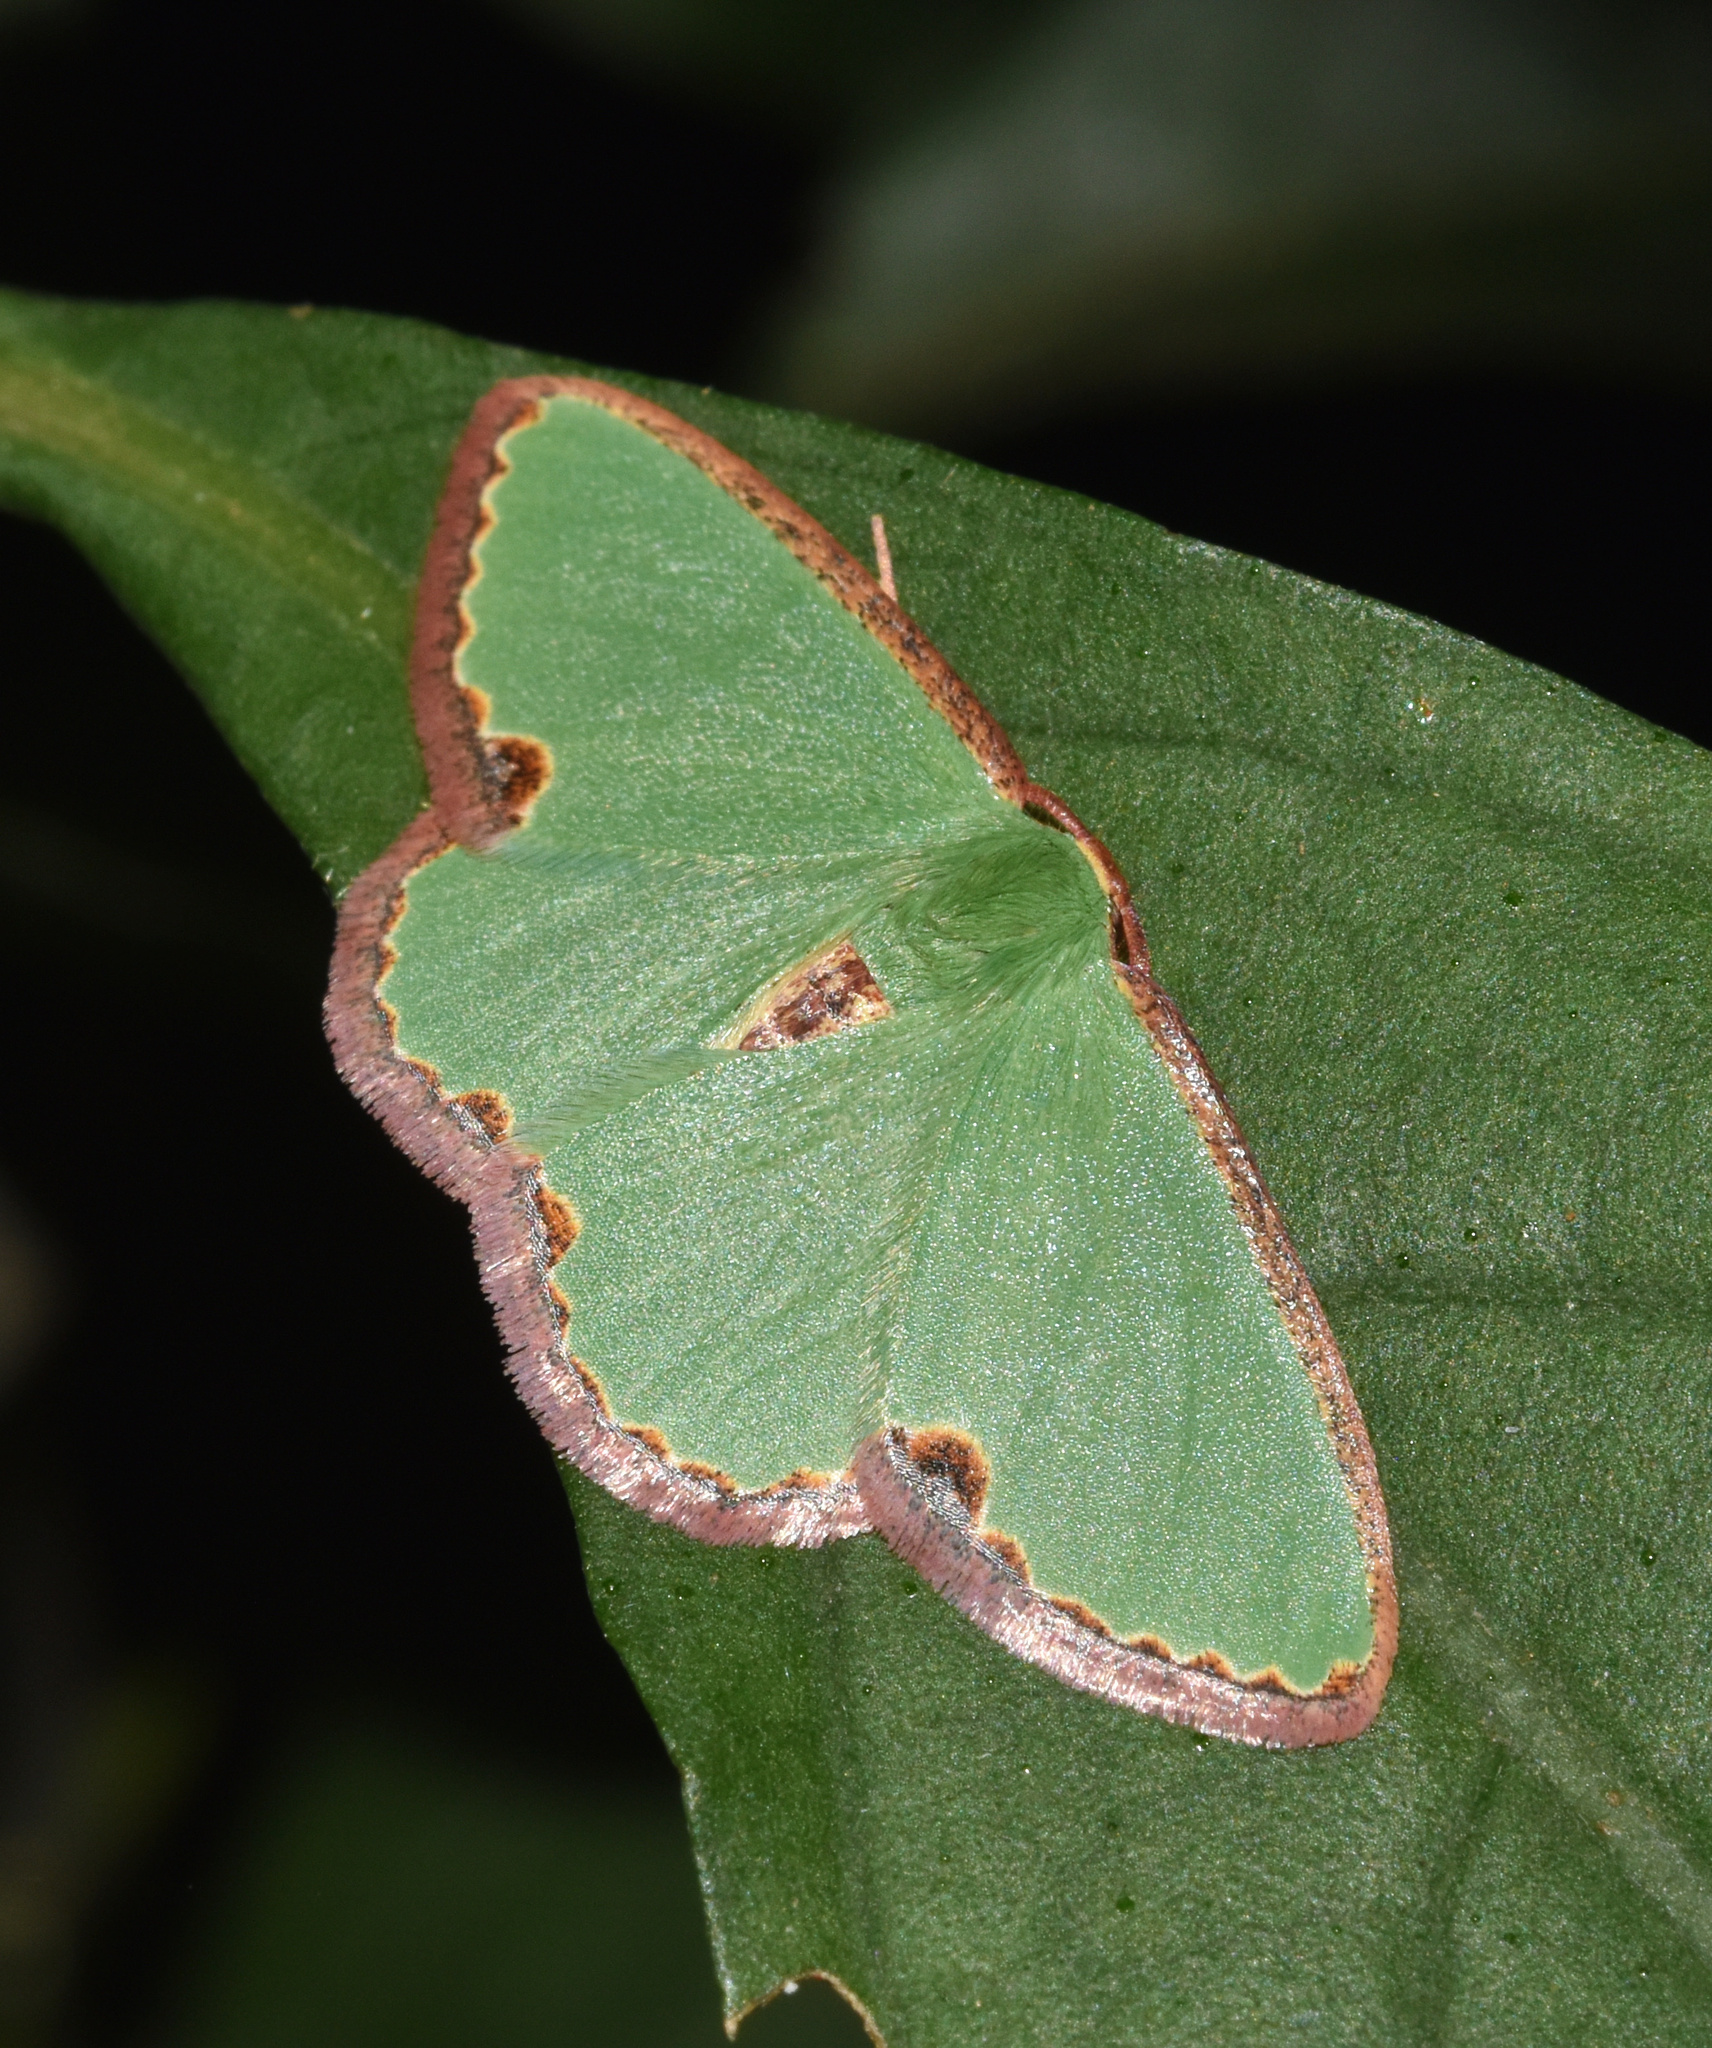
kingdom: Animalia
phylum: Arthropoda
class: Insecta
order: Lepidoptera
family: Geometridae
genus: Heterorachis
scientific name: Heterorachis devocata
